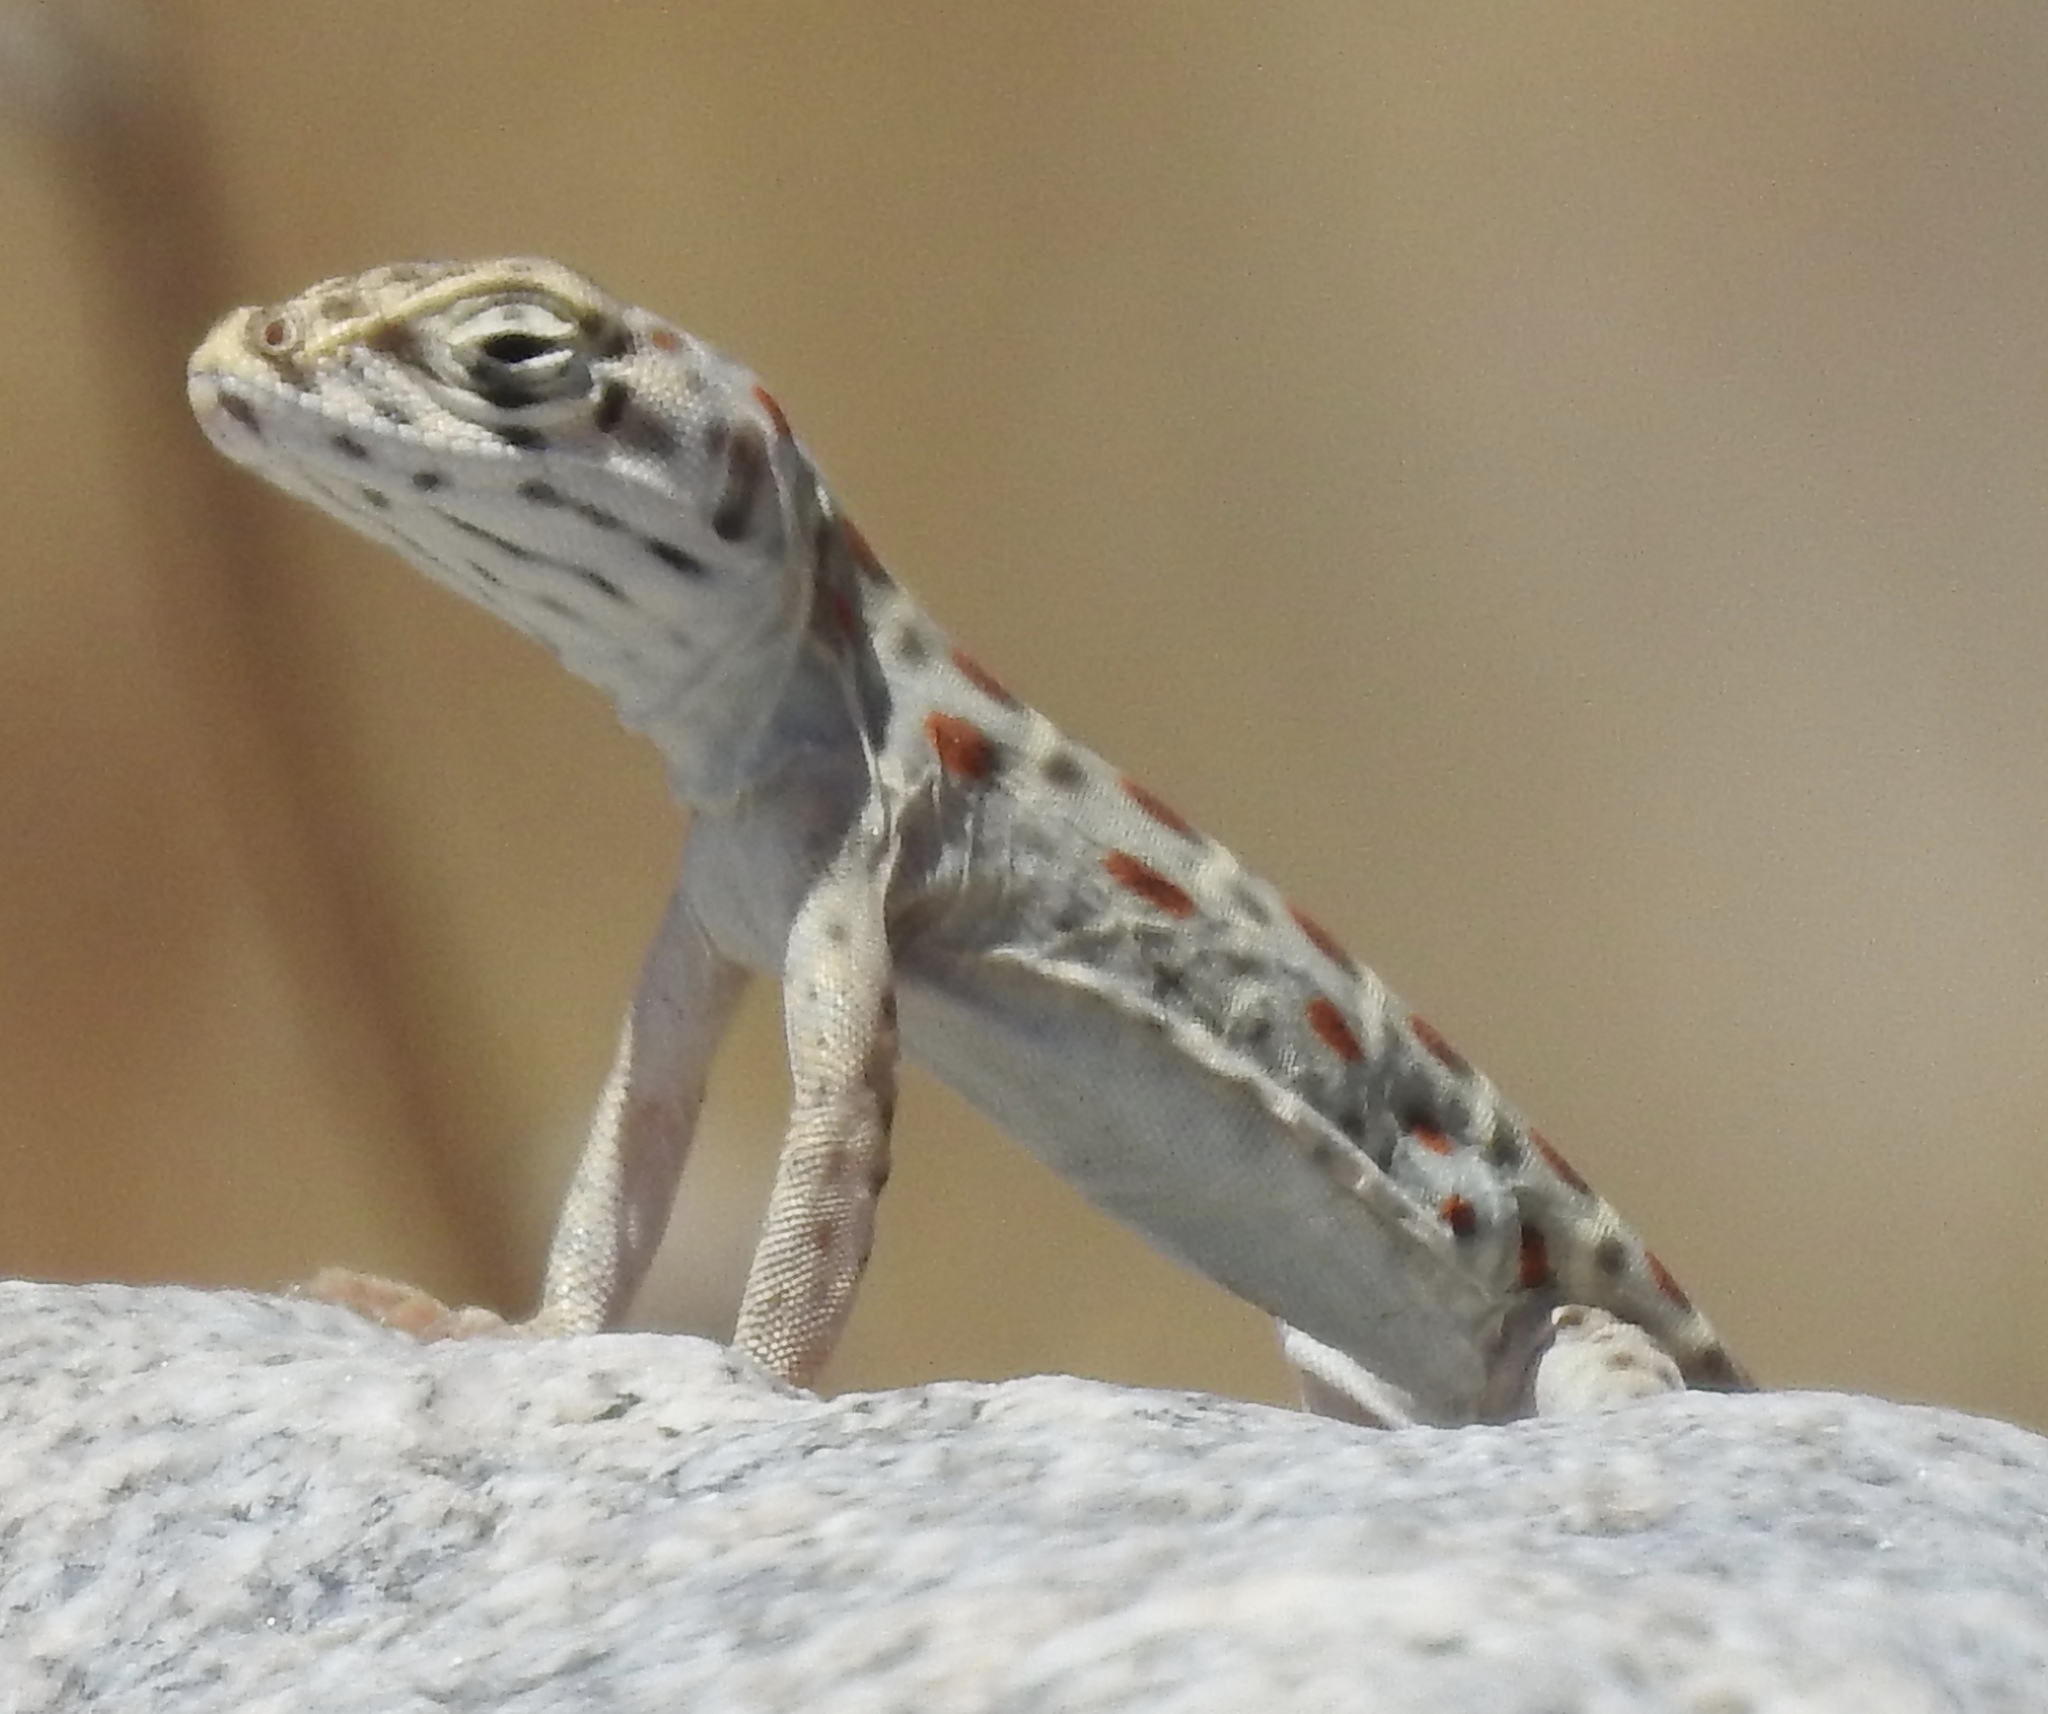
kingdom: Animalia
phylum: Chordata
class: Squamata
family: Crotaphytidae
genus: Gambelia
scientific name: Gambelia wislizenii
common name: Longnose leopard lizard
